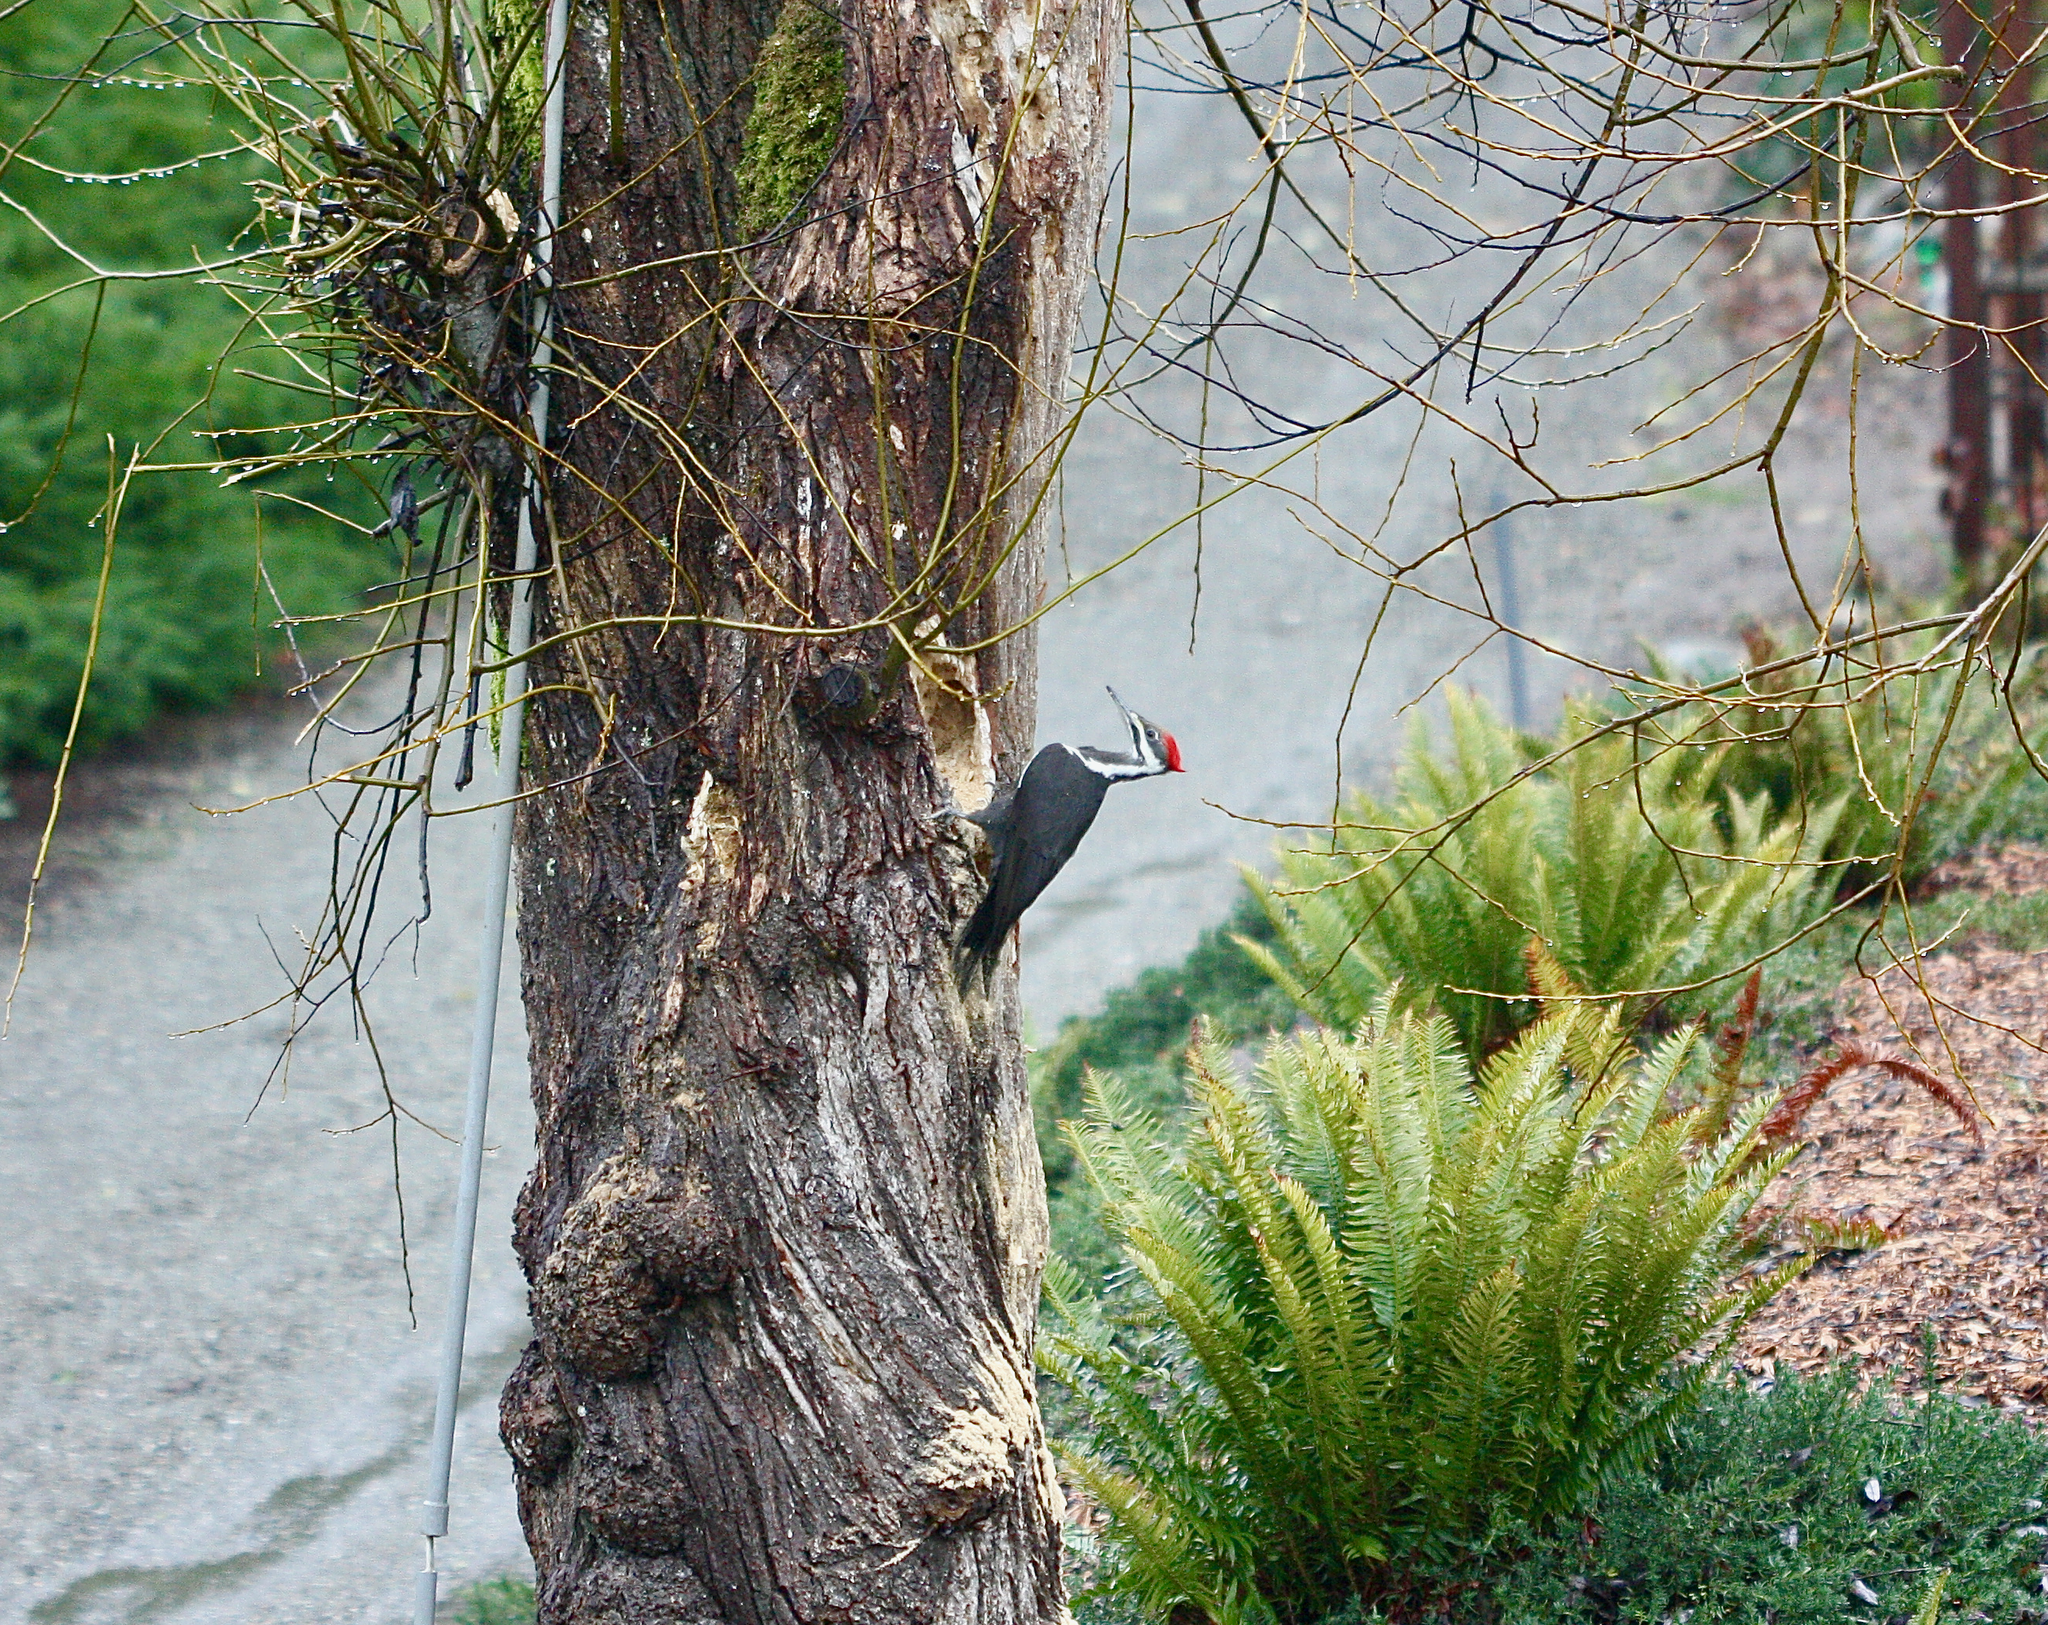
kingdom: Animalia
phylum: Chordata
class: Aves
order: Piciformes
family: Picidae
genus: Dryocopus
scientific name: Dryocopus pileatus
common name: Pileated woodpecker
